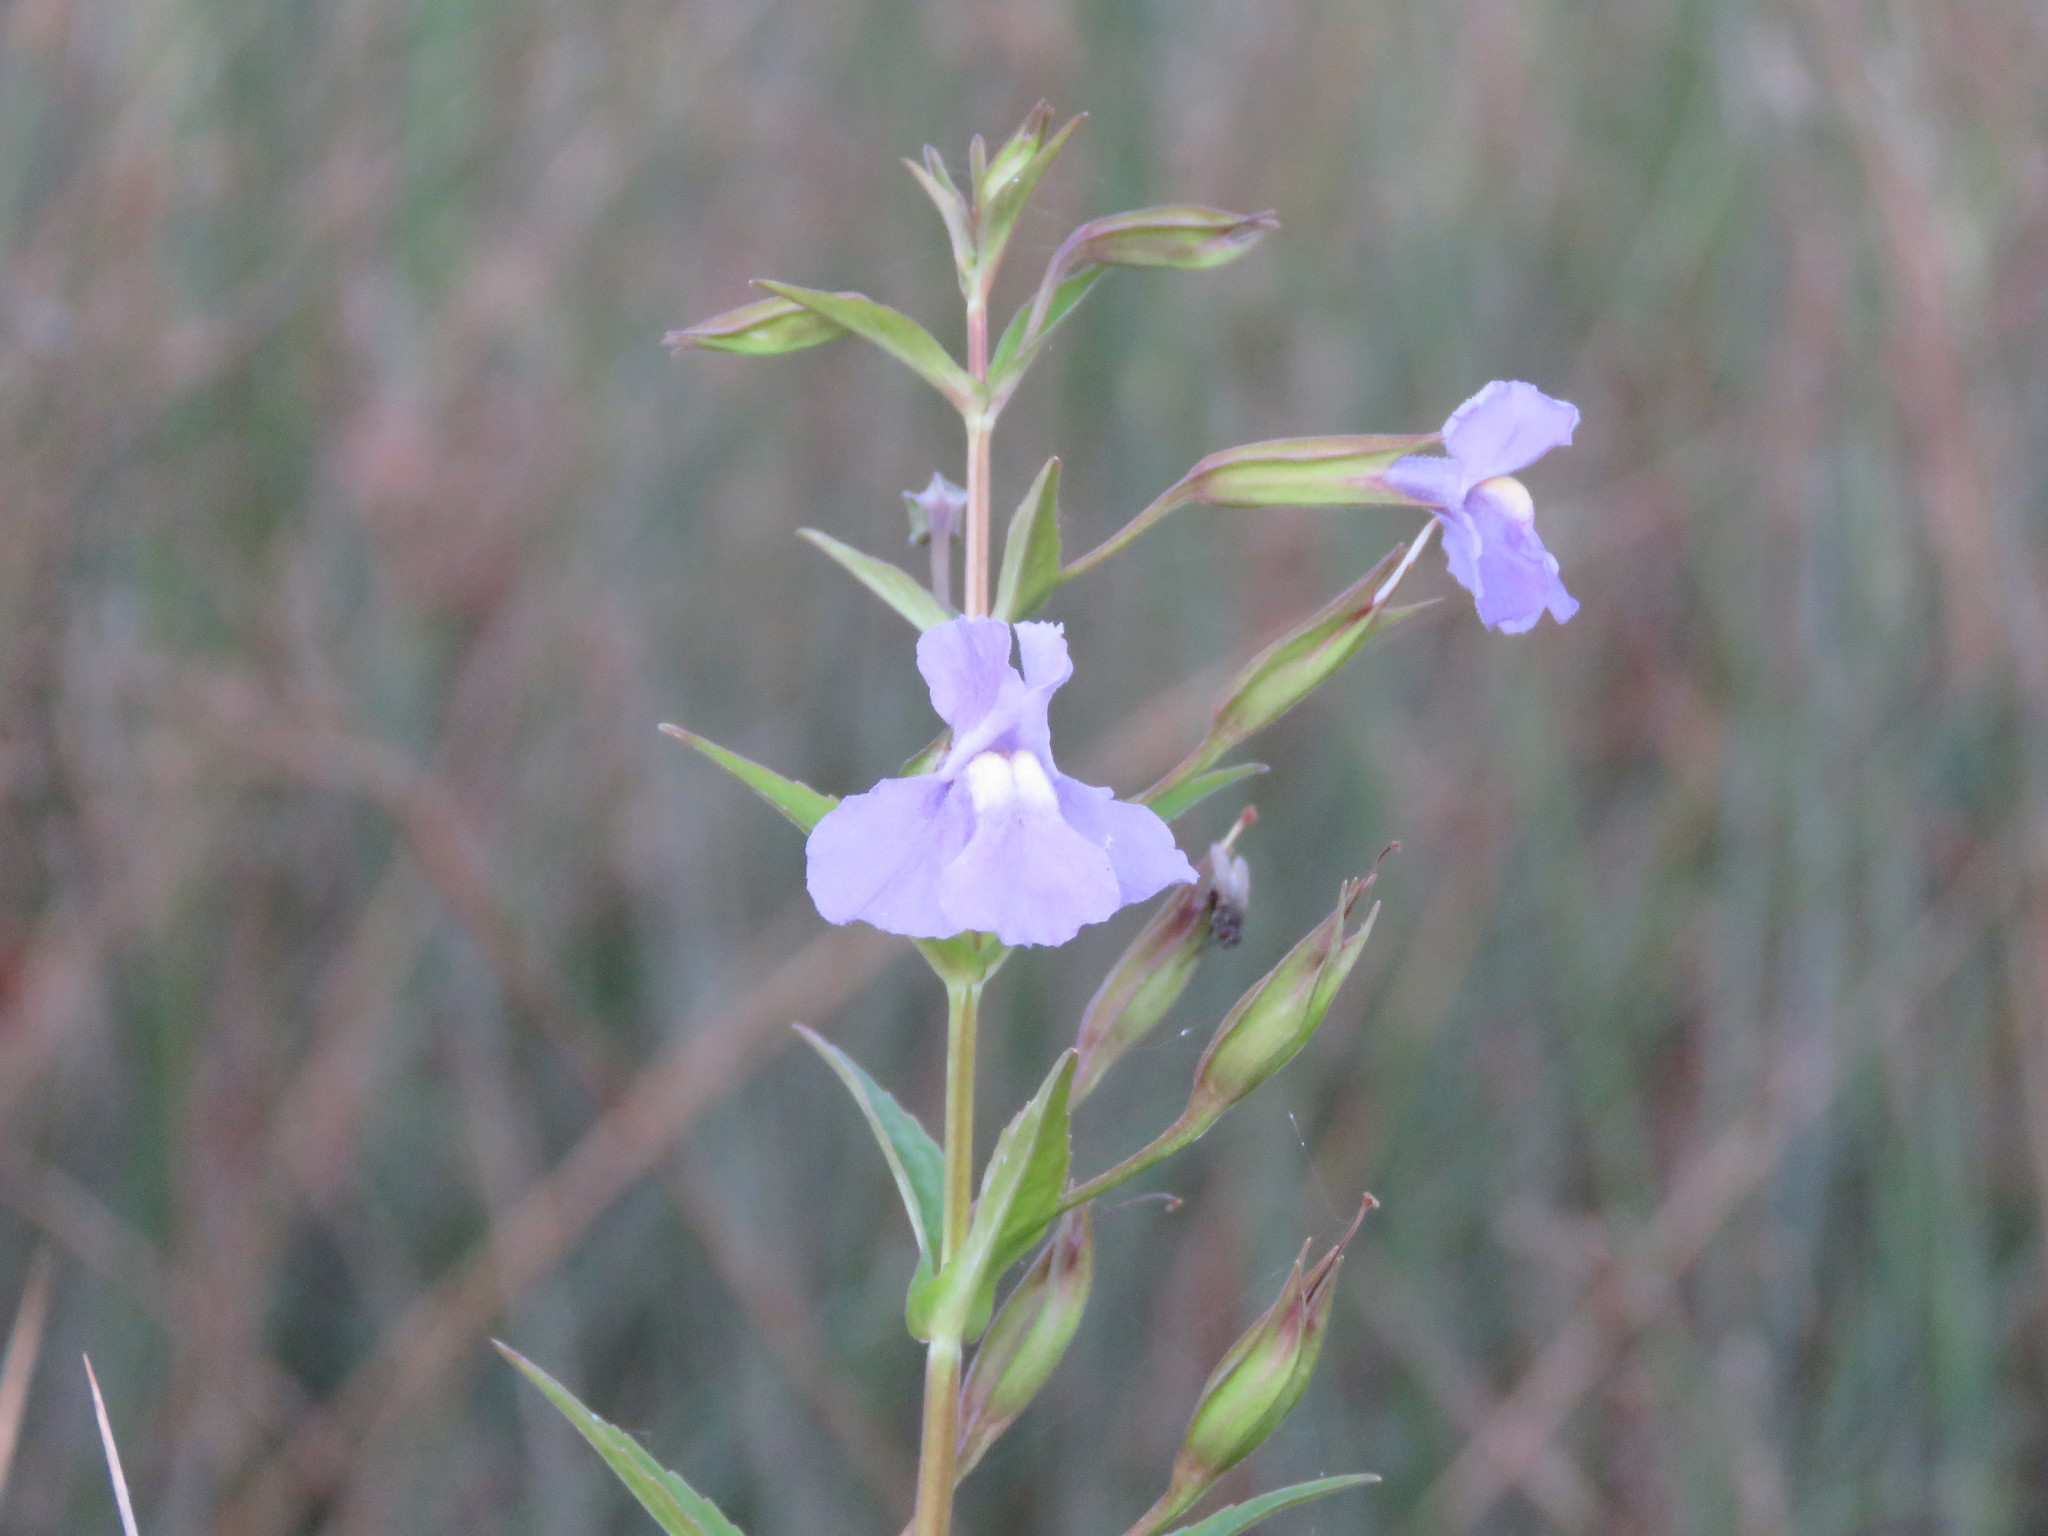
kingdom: Plantae
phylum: Tracheophyta
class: Magnoliopsida
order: Lamiales
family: Phrymaceae
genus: Mimulus
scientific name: Mimulus ringens
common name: Allegheny monkeyflower
